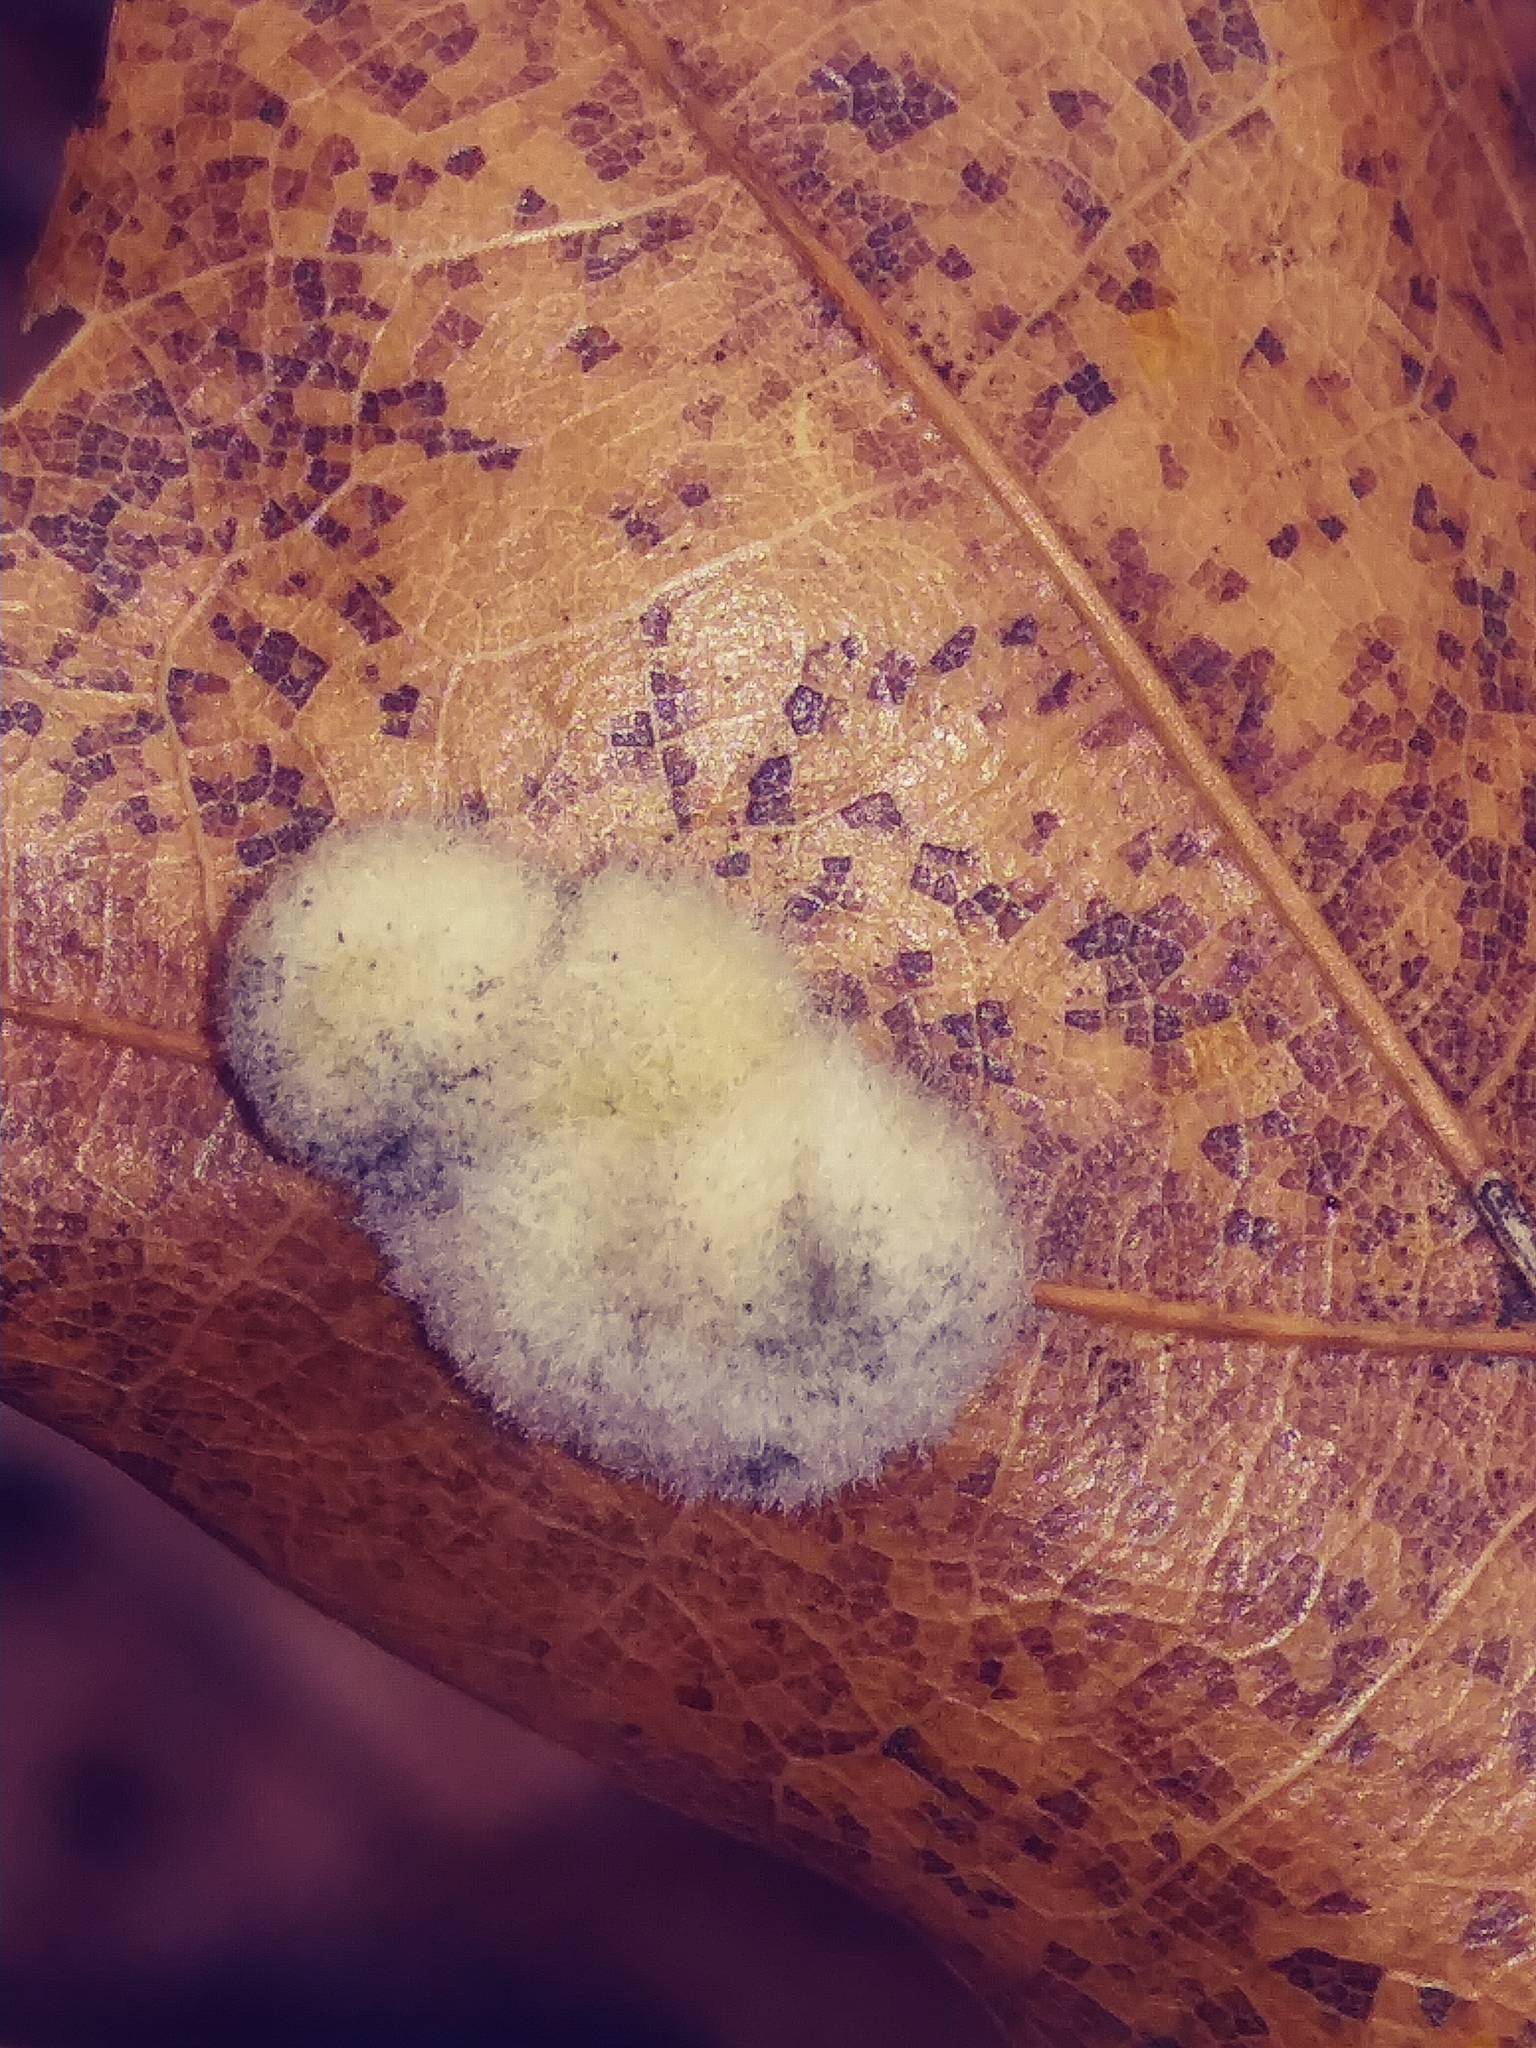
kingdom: Animalia
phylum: Arthropoda
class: Insecta
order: Hymenoptera
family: Cynipidae
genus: Callirhytis
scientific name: Callirhytis
